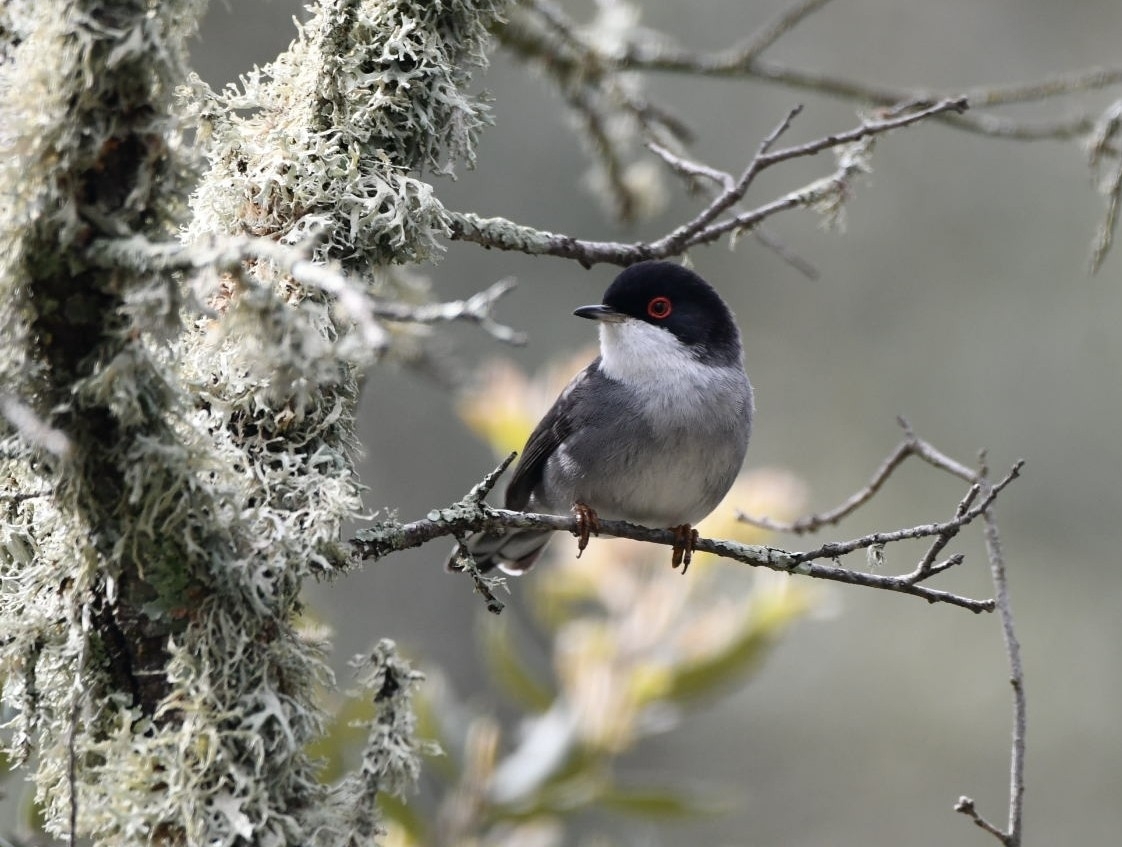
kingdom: Animalia
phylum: Chordata
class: Aves
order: Passeriformes
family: Sylviidae
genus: Curruca
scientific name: Curruca melanocephala
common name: Sardinian warbler
